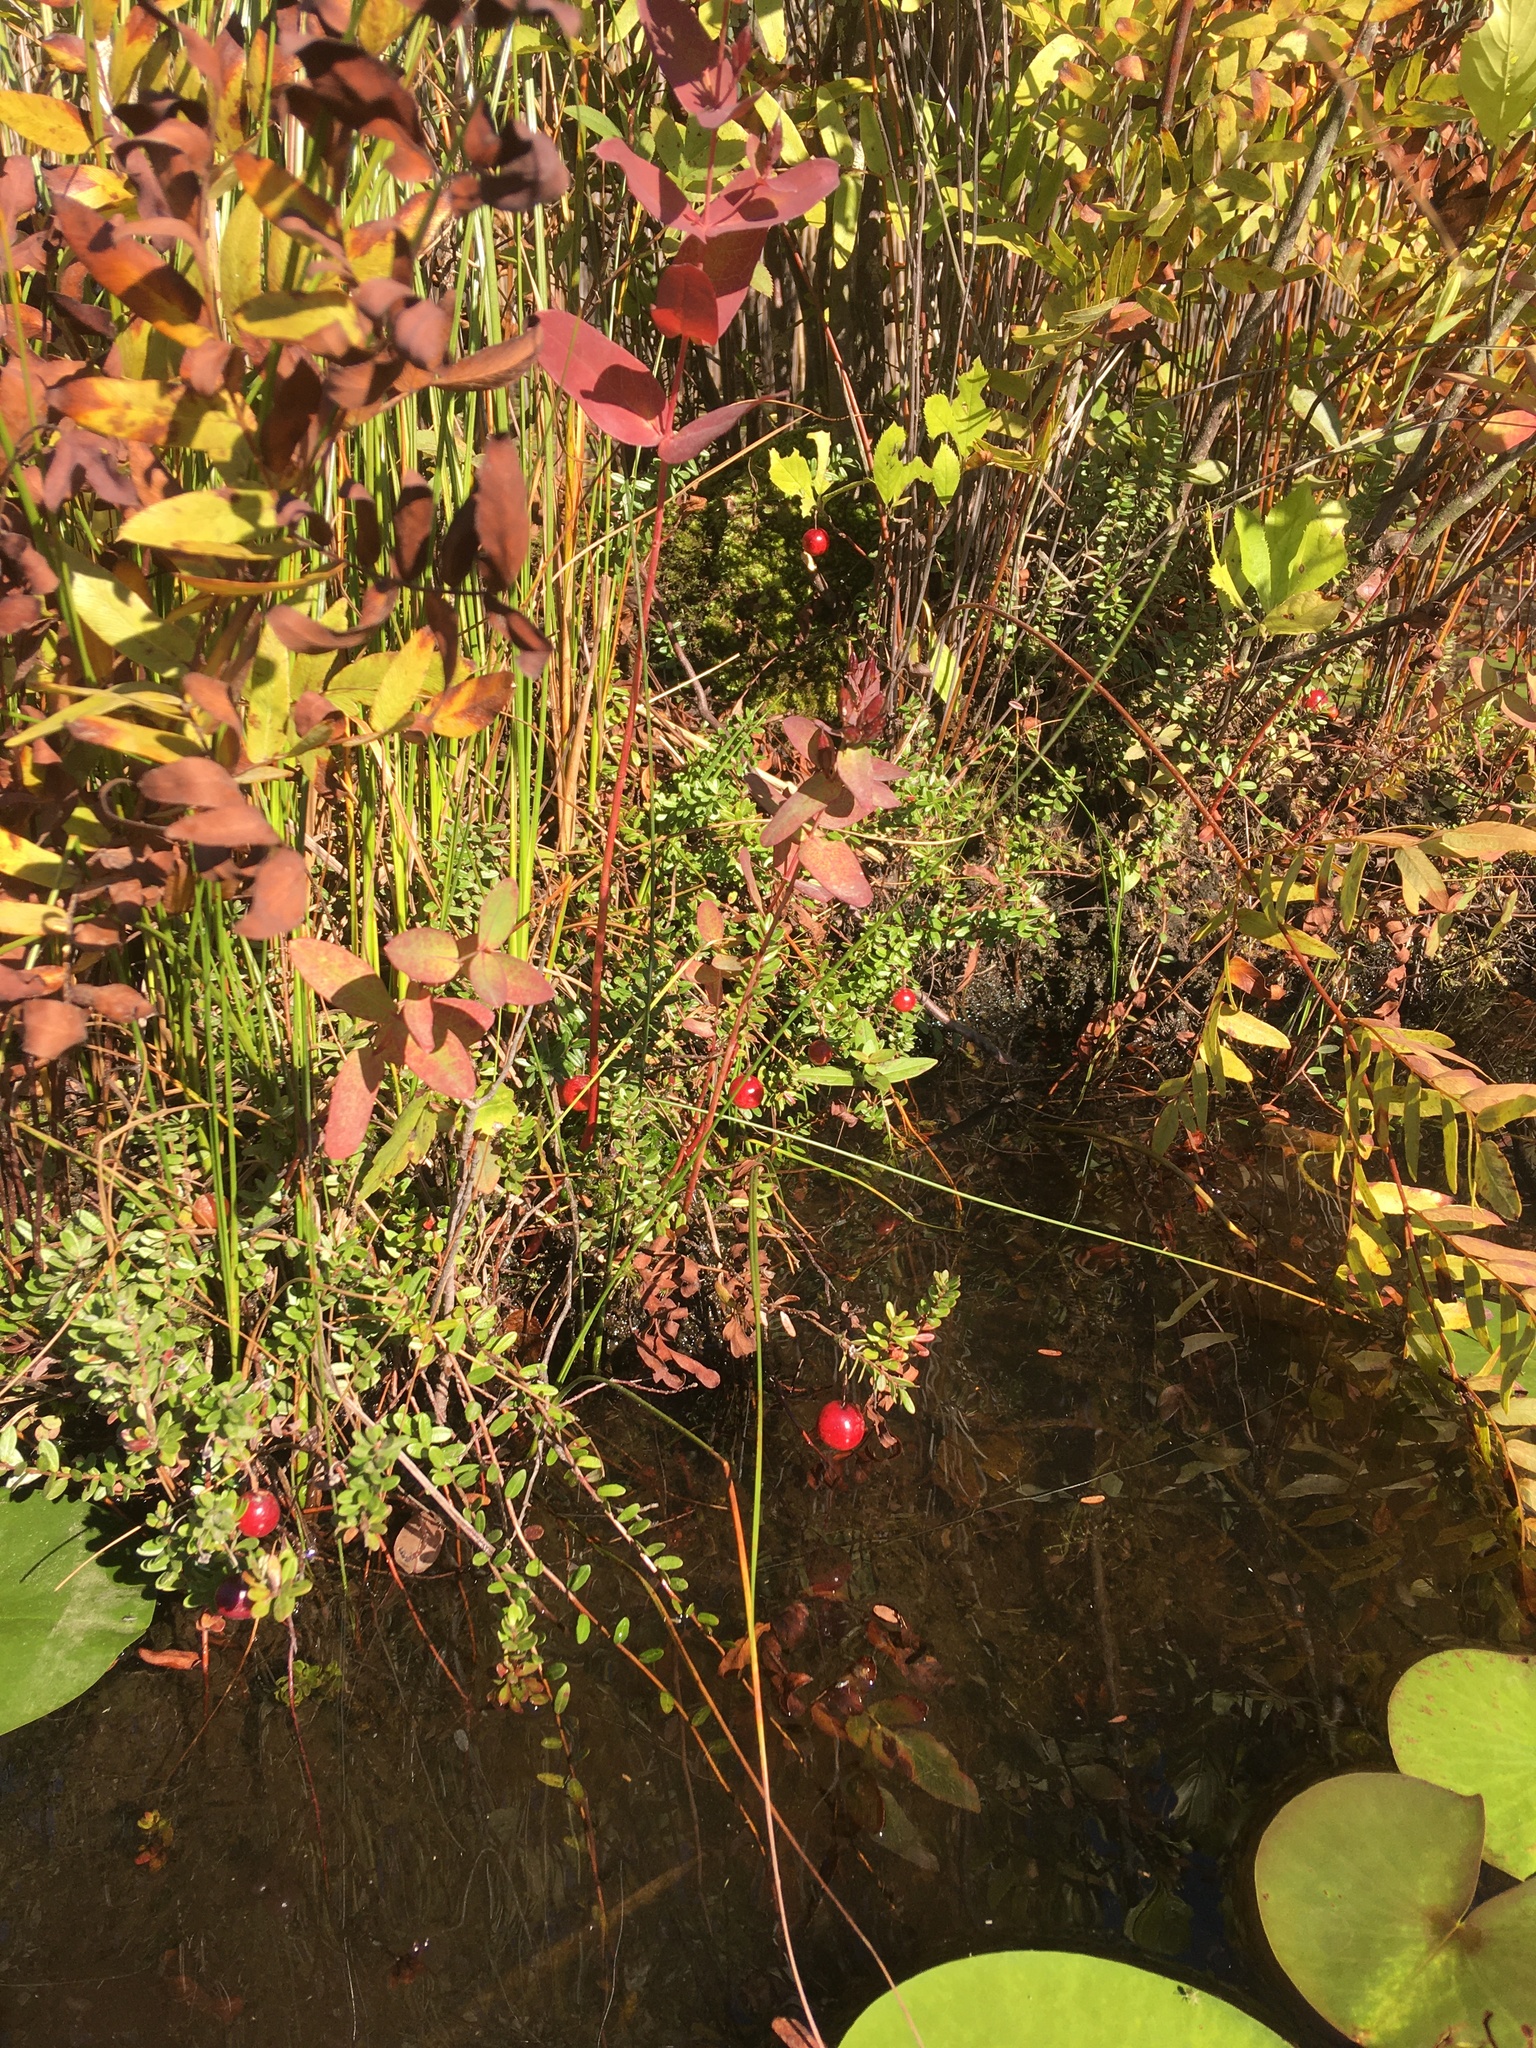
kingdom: Plantae
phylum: Tracheophyta
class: Magnoliopsida
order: Ericales
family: Ericaceae
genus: Vaccinium
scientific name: Vaccinium macrocarpon
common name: American cranberry
